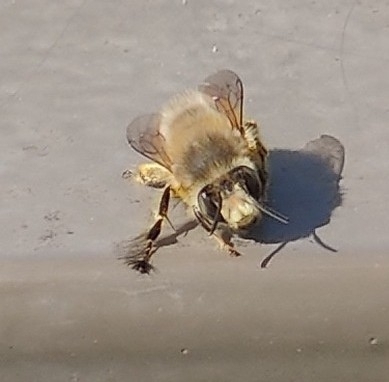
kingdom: Animalia
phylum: Arthropoda
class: Insecta
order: Hymenoptera
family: Apidae
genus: Anthophora
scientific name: Anthophora plumipes
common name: Hairy-footed flower bee
